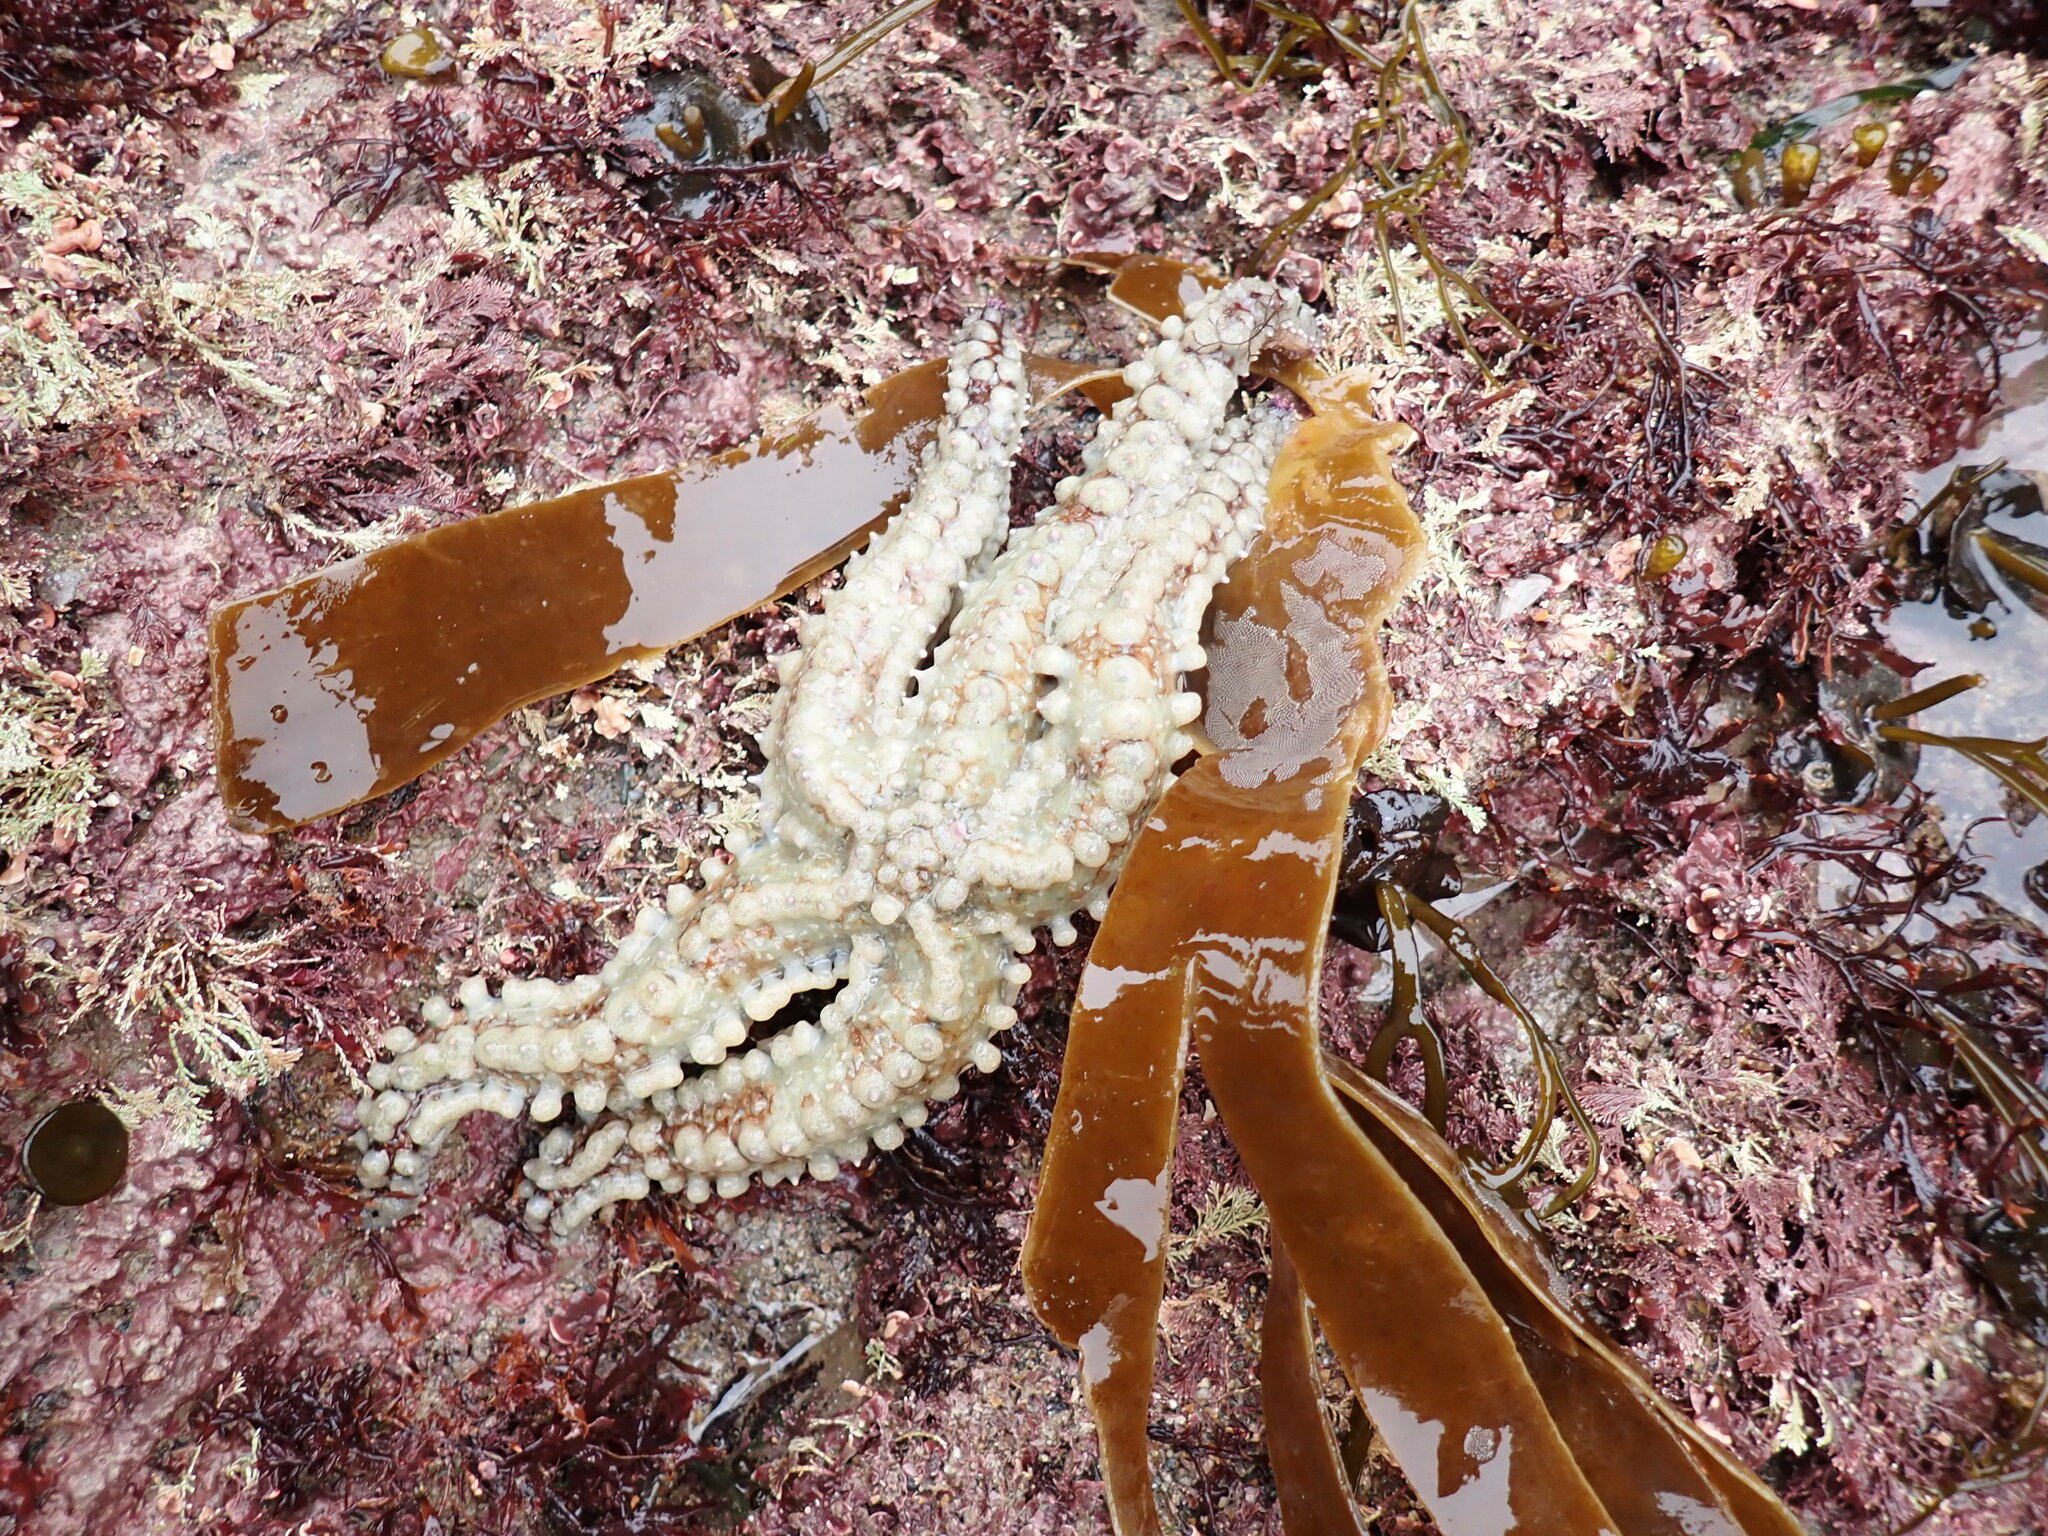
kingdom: Animalia
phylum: Echinodermata
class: Asteroidea
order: Forcipulatida
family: Asteriidae
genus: Marthasterias
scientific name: Marthasterias glacialis
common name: Spiny starfish
